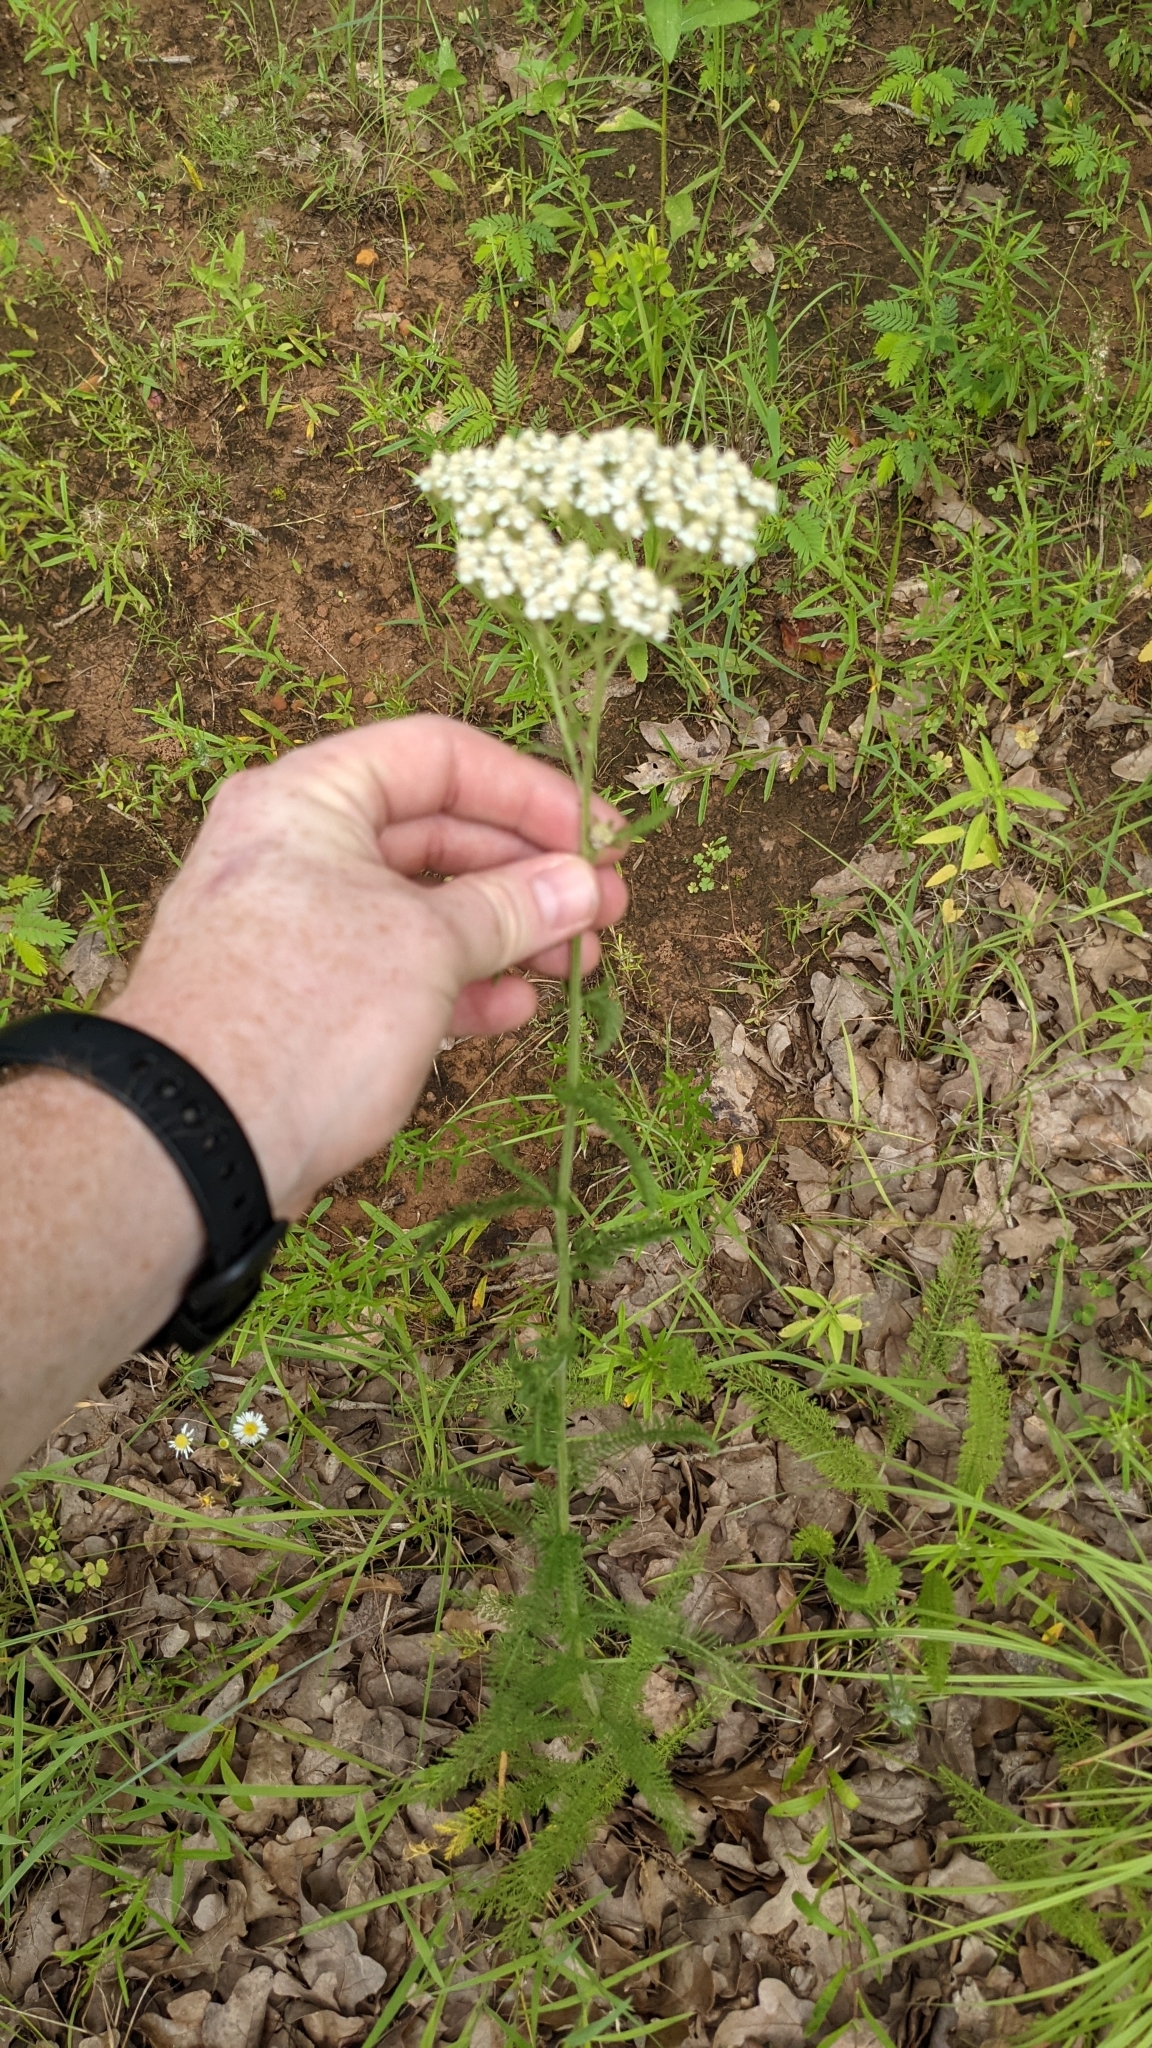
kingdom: Plantae
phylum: Tracheophyta
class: Magnoliopsida
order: Asterales
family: Asteraceae
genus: Achillea
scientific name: Achillea millefolium
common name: Yarrow
